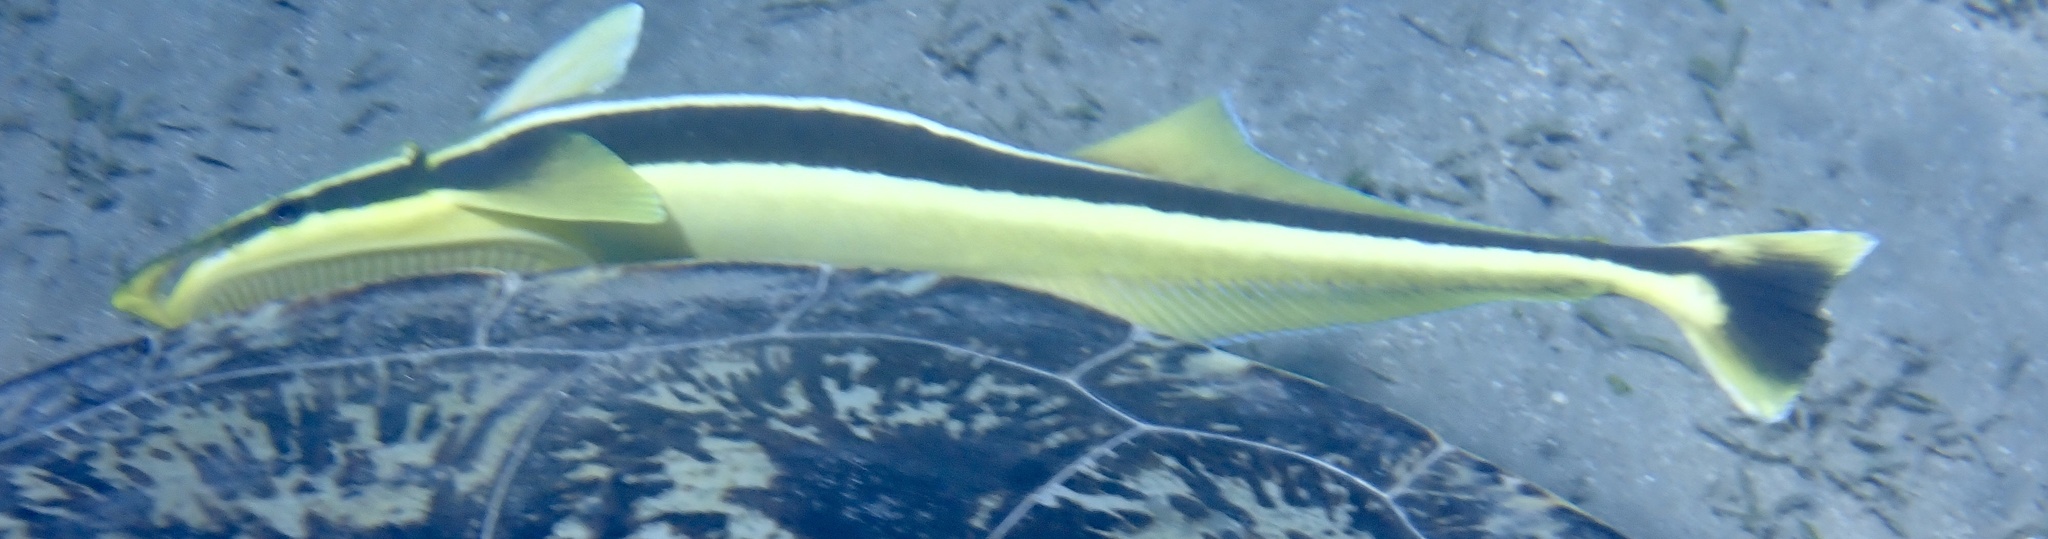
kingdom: Animalia
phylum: Chordata
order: Perciformes
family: Echeneidae
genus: Echeneis
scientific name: Echeneis naucrates
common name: Sharksucker
